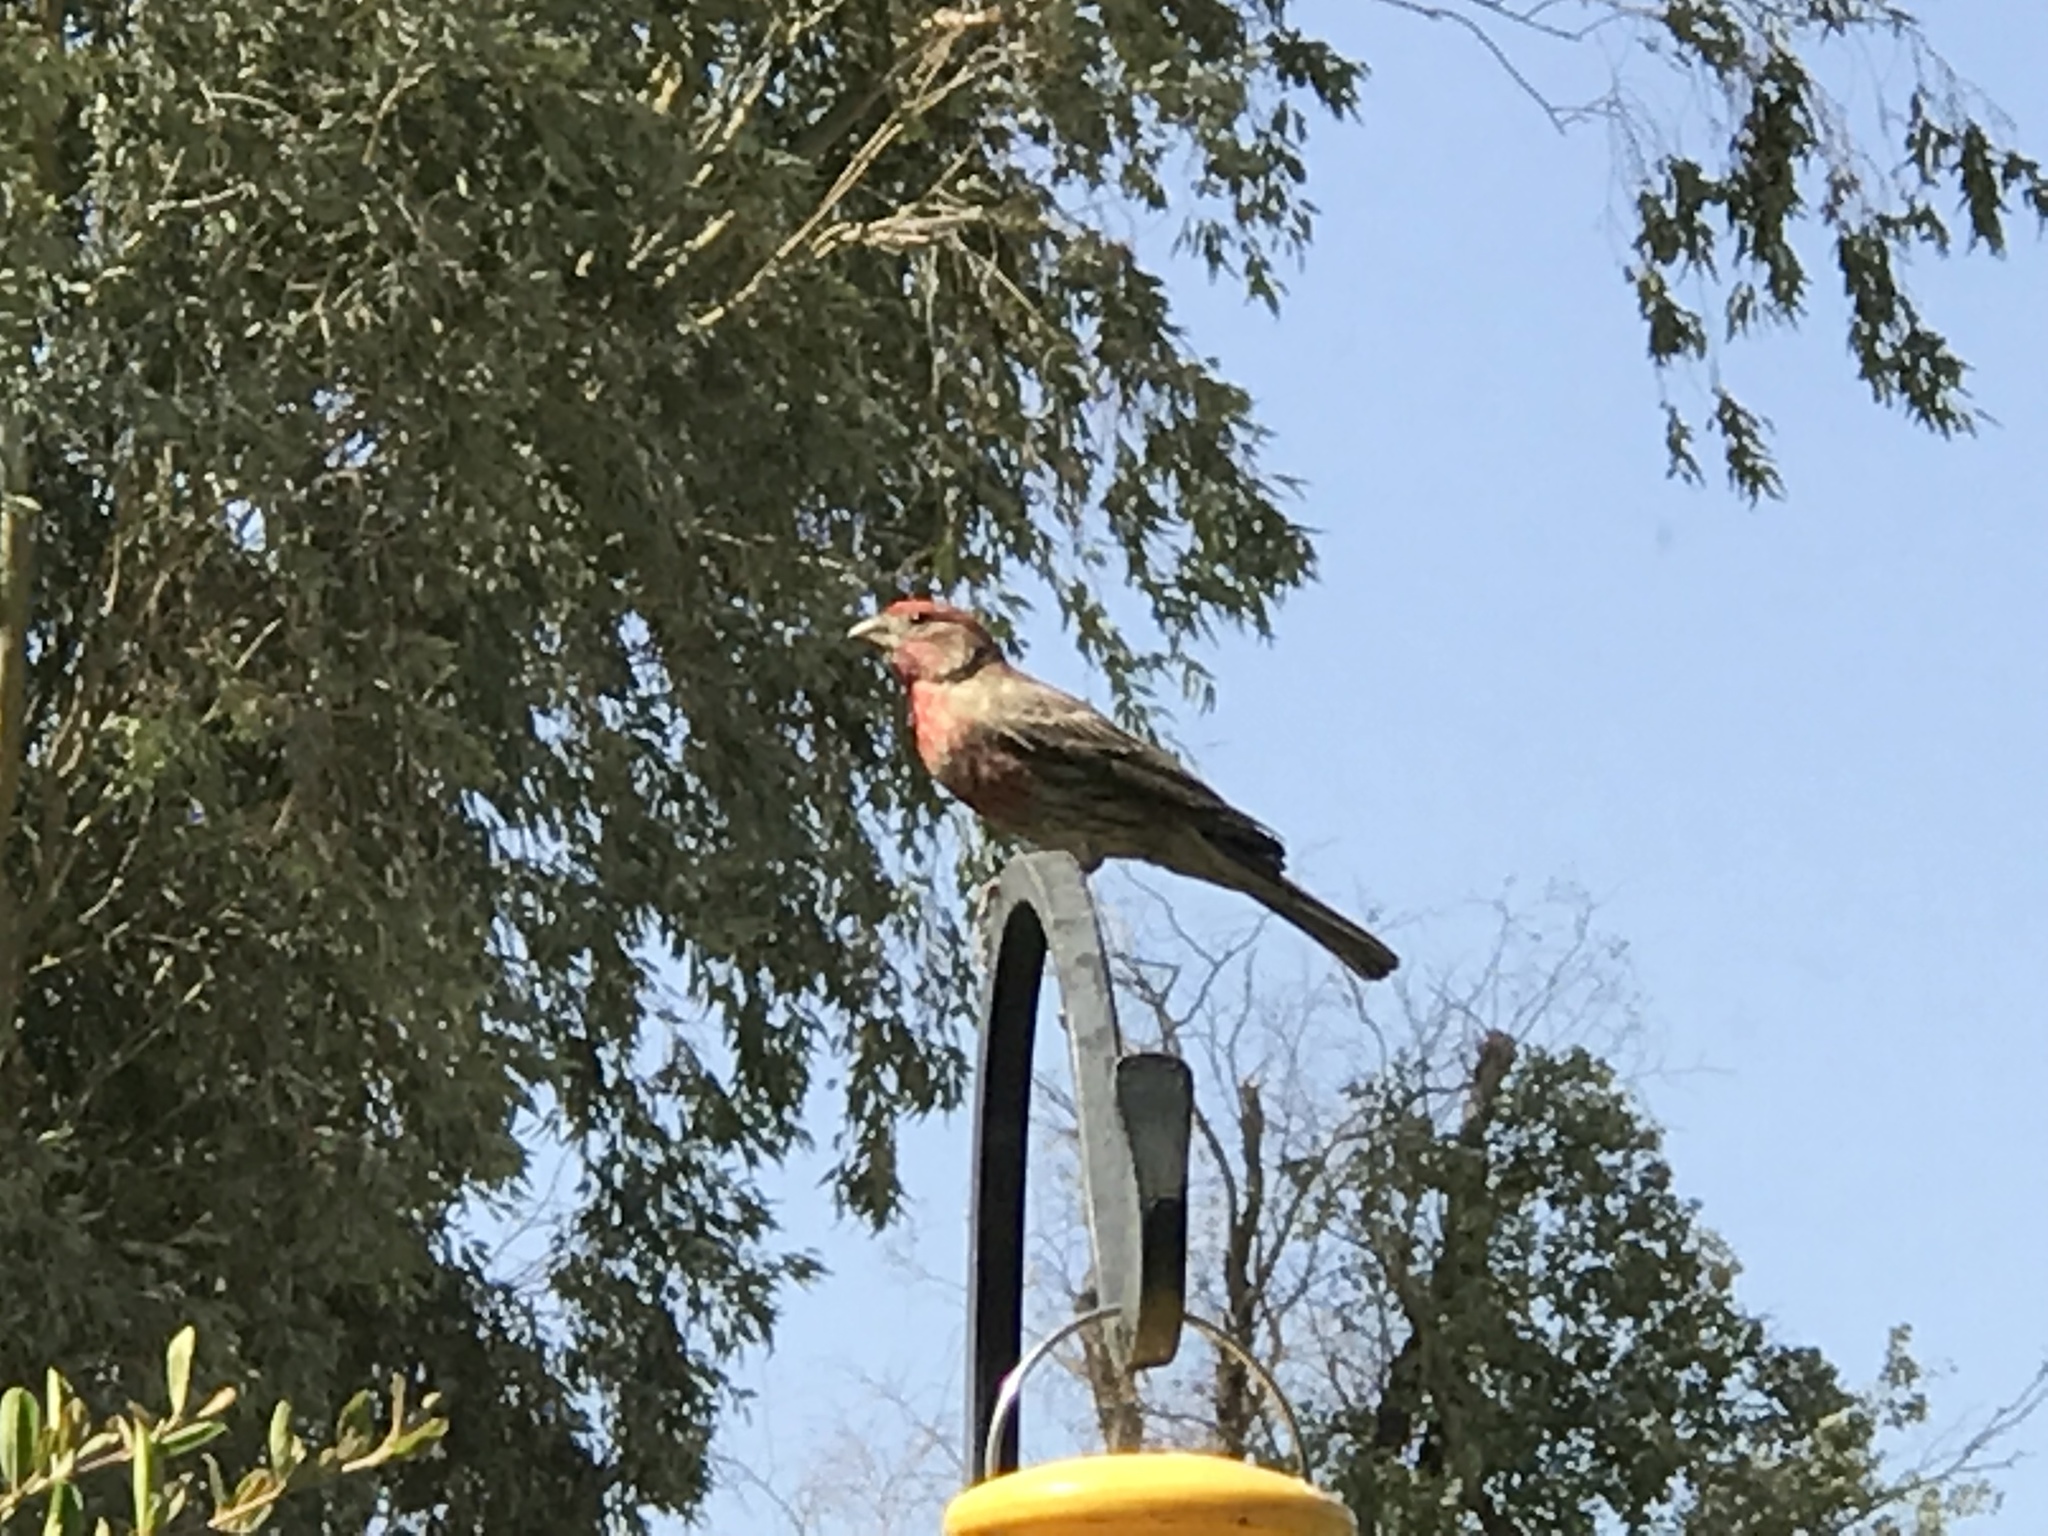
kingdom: Animalia
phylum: Chordata
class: Aves
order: Passeriformes
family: Fringillidae
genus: Haemorhous
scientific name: Haemorhous mexicanus
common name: House finch
